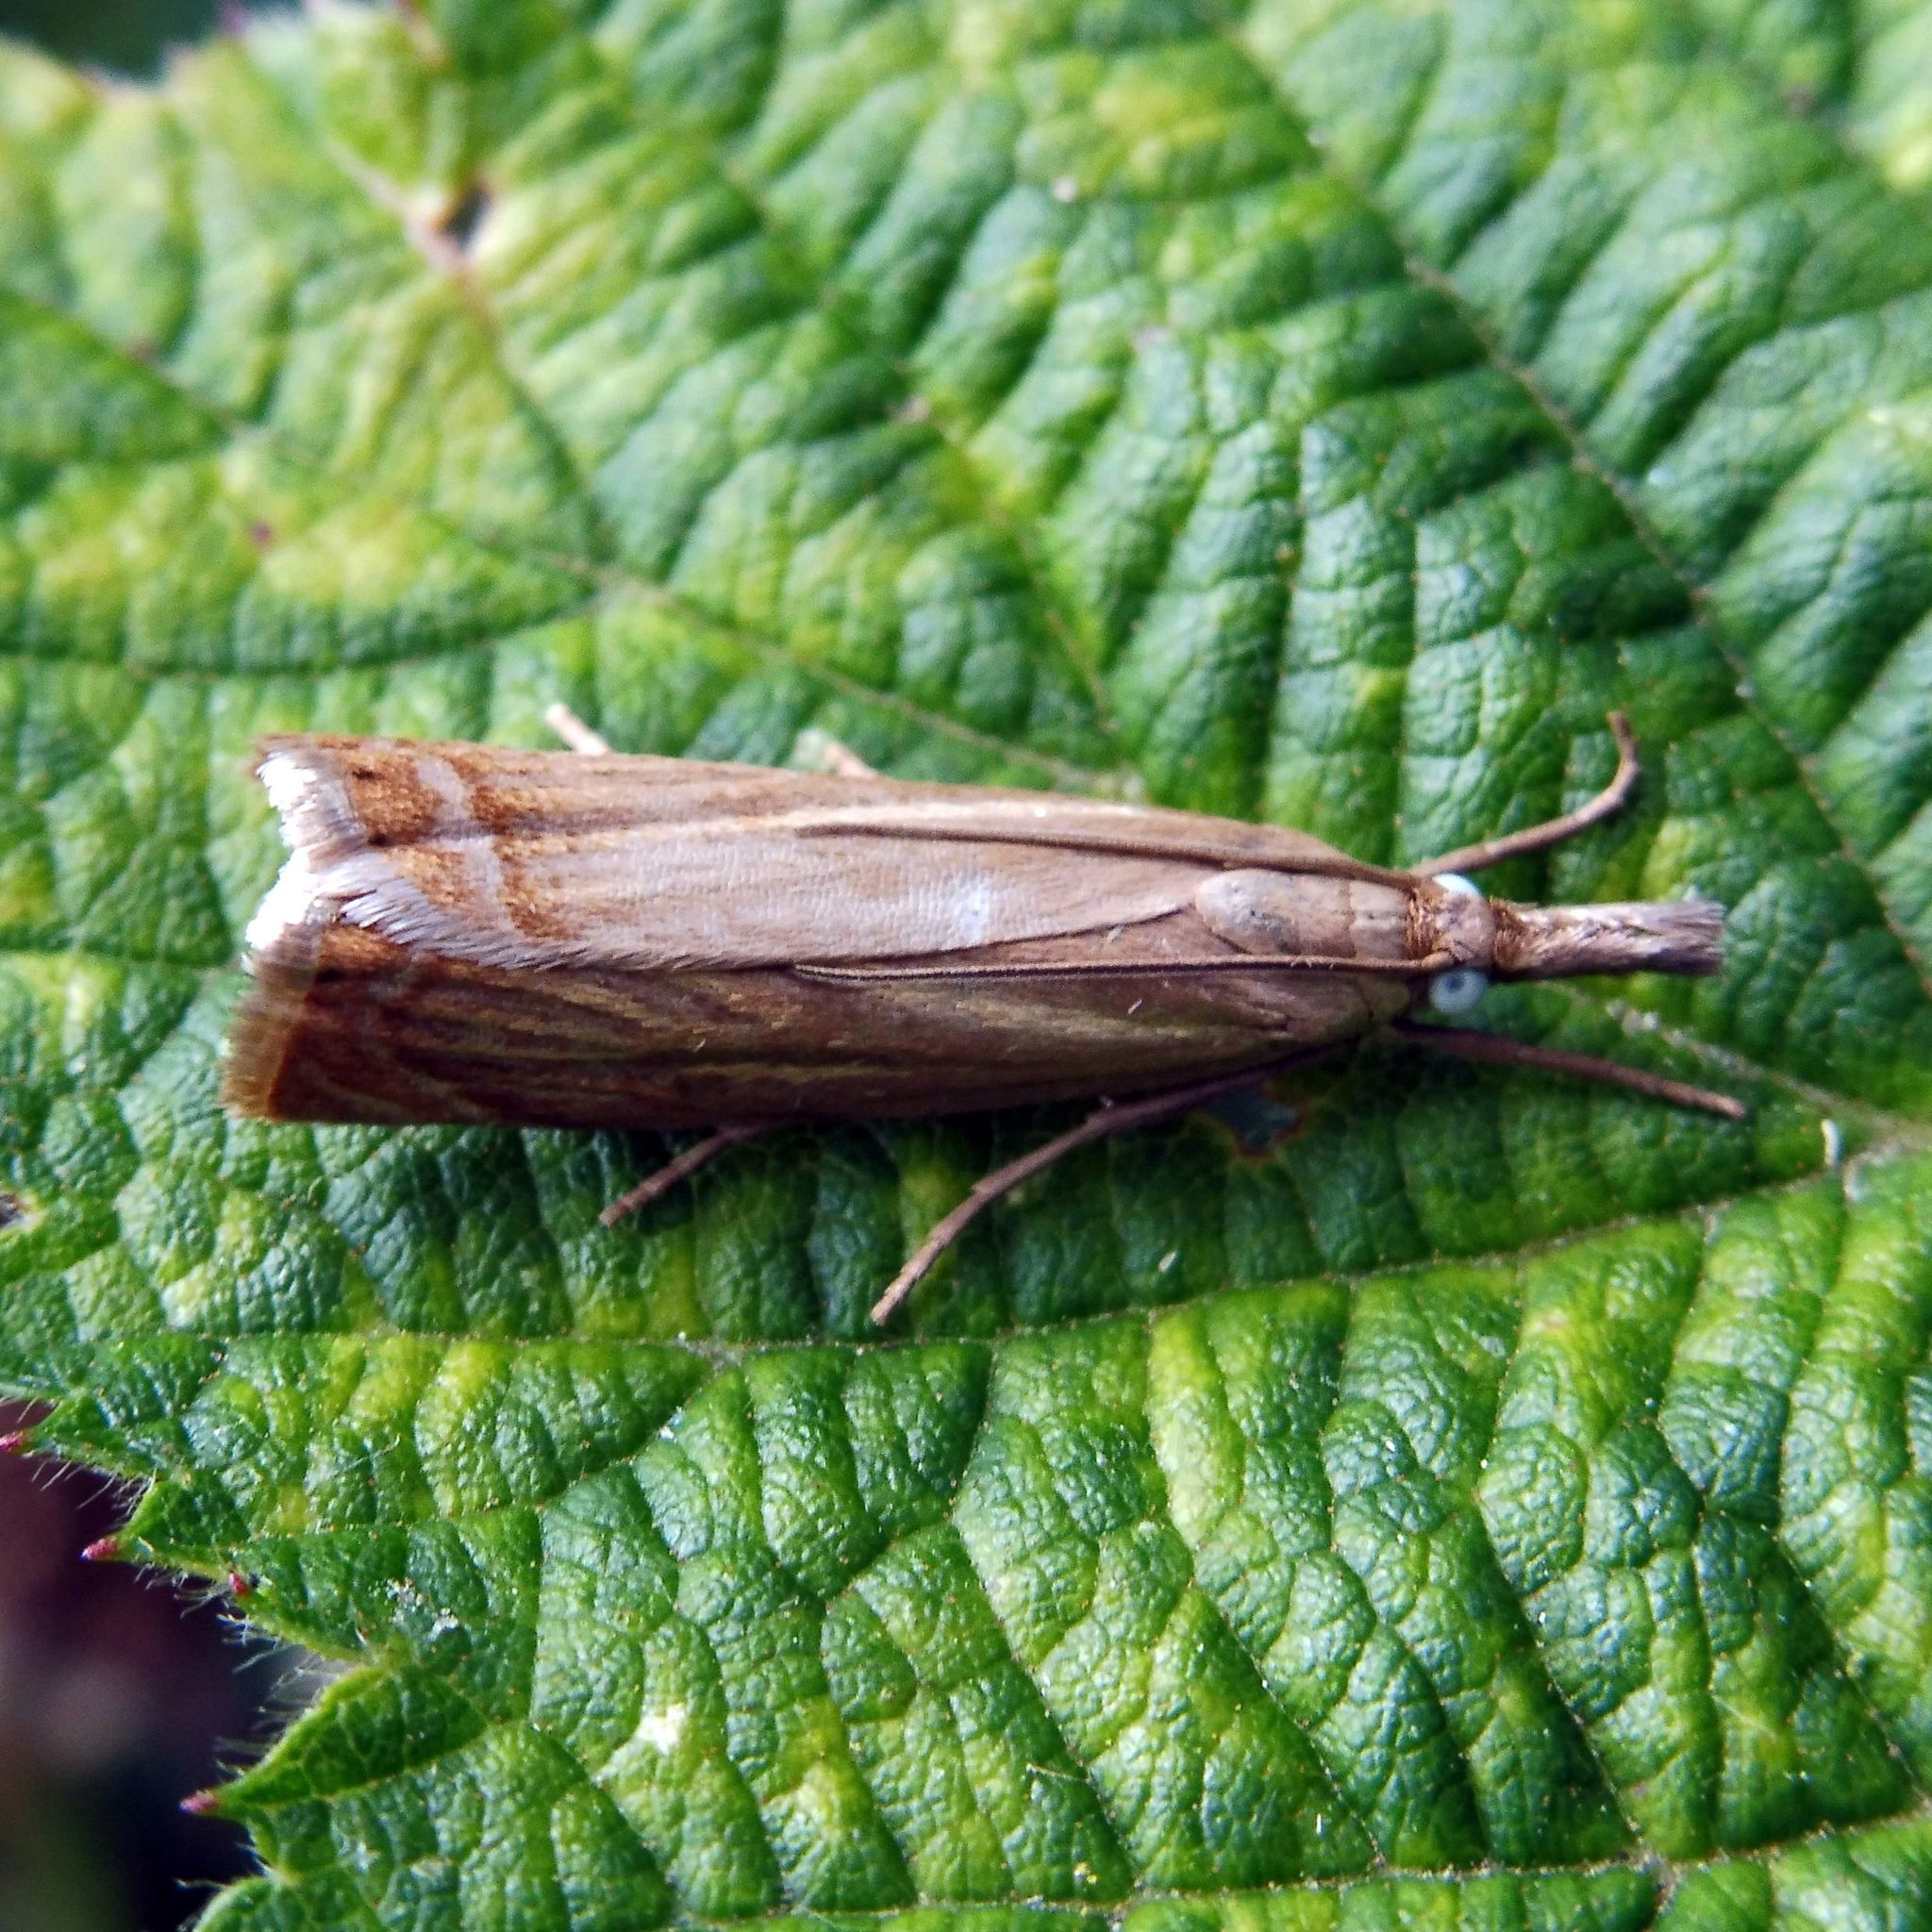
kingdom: Animalia
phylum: Arthropoda
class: Insecta
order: Lepidoptera
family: Crambidae
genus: Chrysoteuchia
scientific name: Chrysoteuchia culmella
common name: Garden grass-veneer
